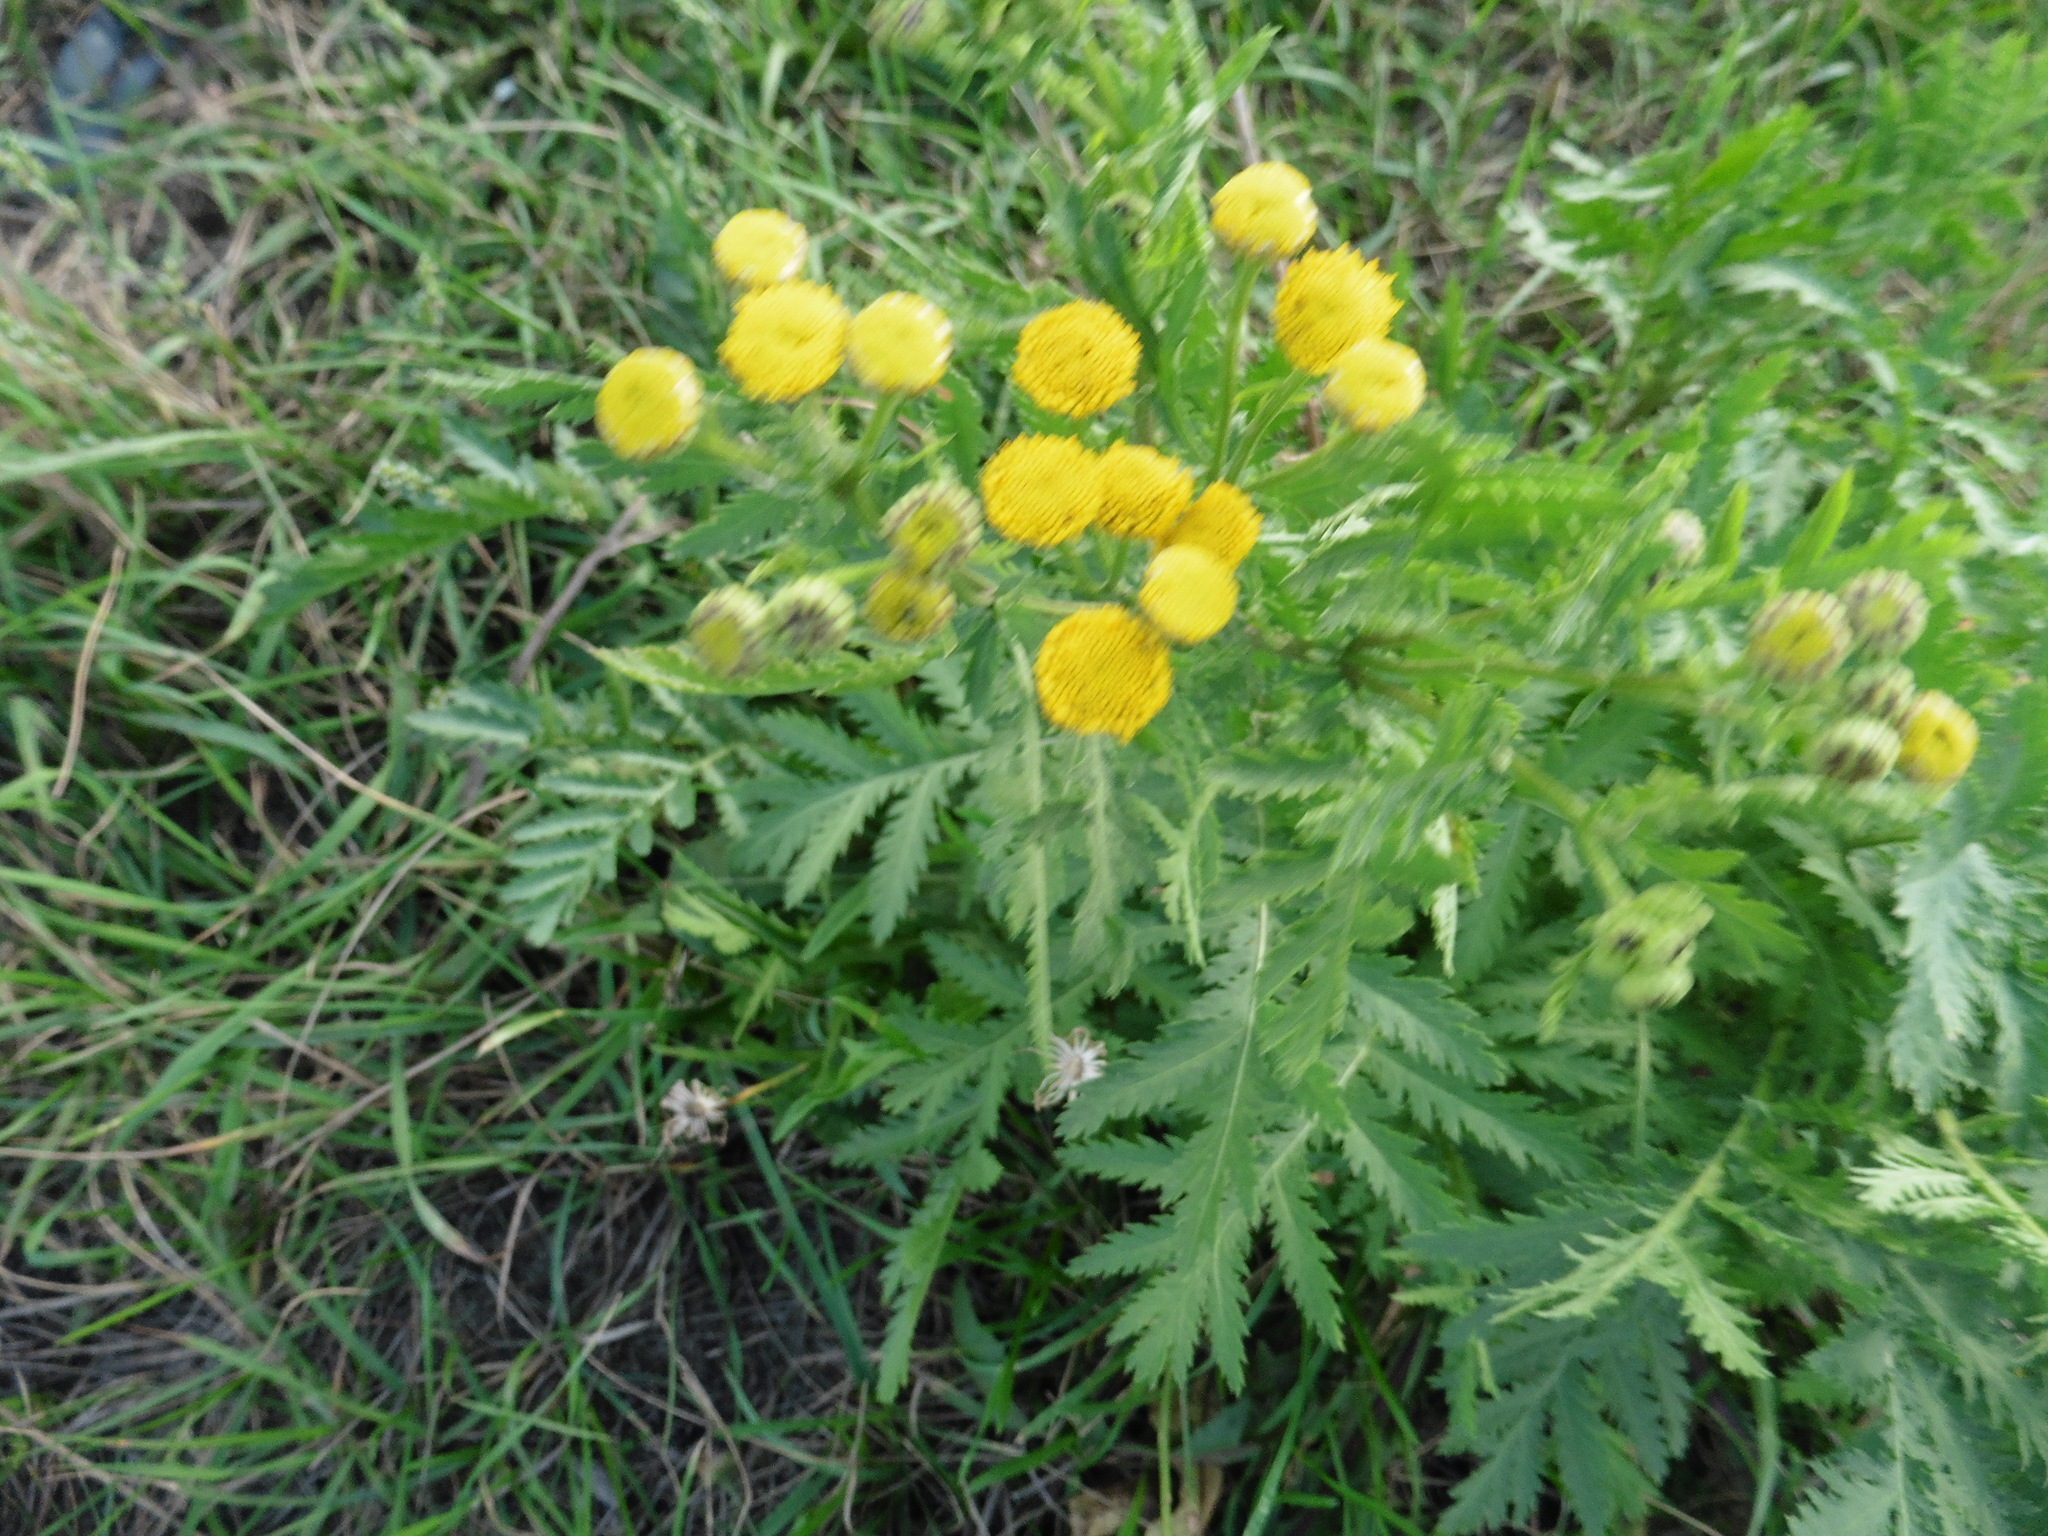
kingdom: Plantae
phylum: Tracheophyta
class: Magnoliopsida
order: Asterales
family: Asteraceae
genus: Tanacetum
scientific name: Tanacetum vulgare
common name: Common tansy
